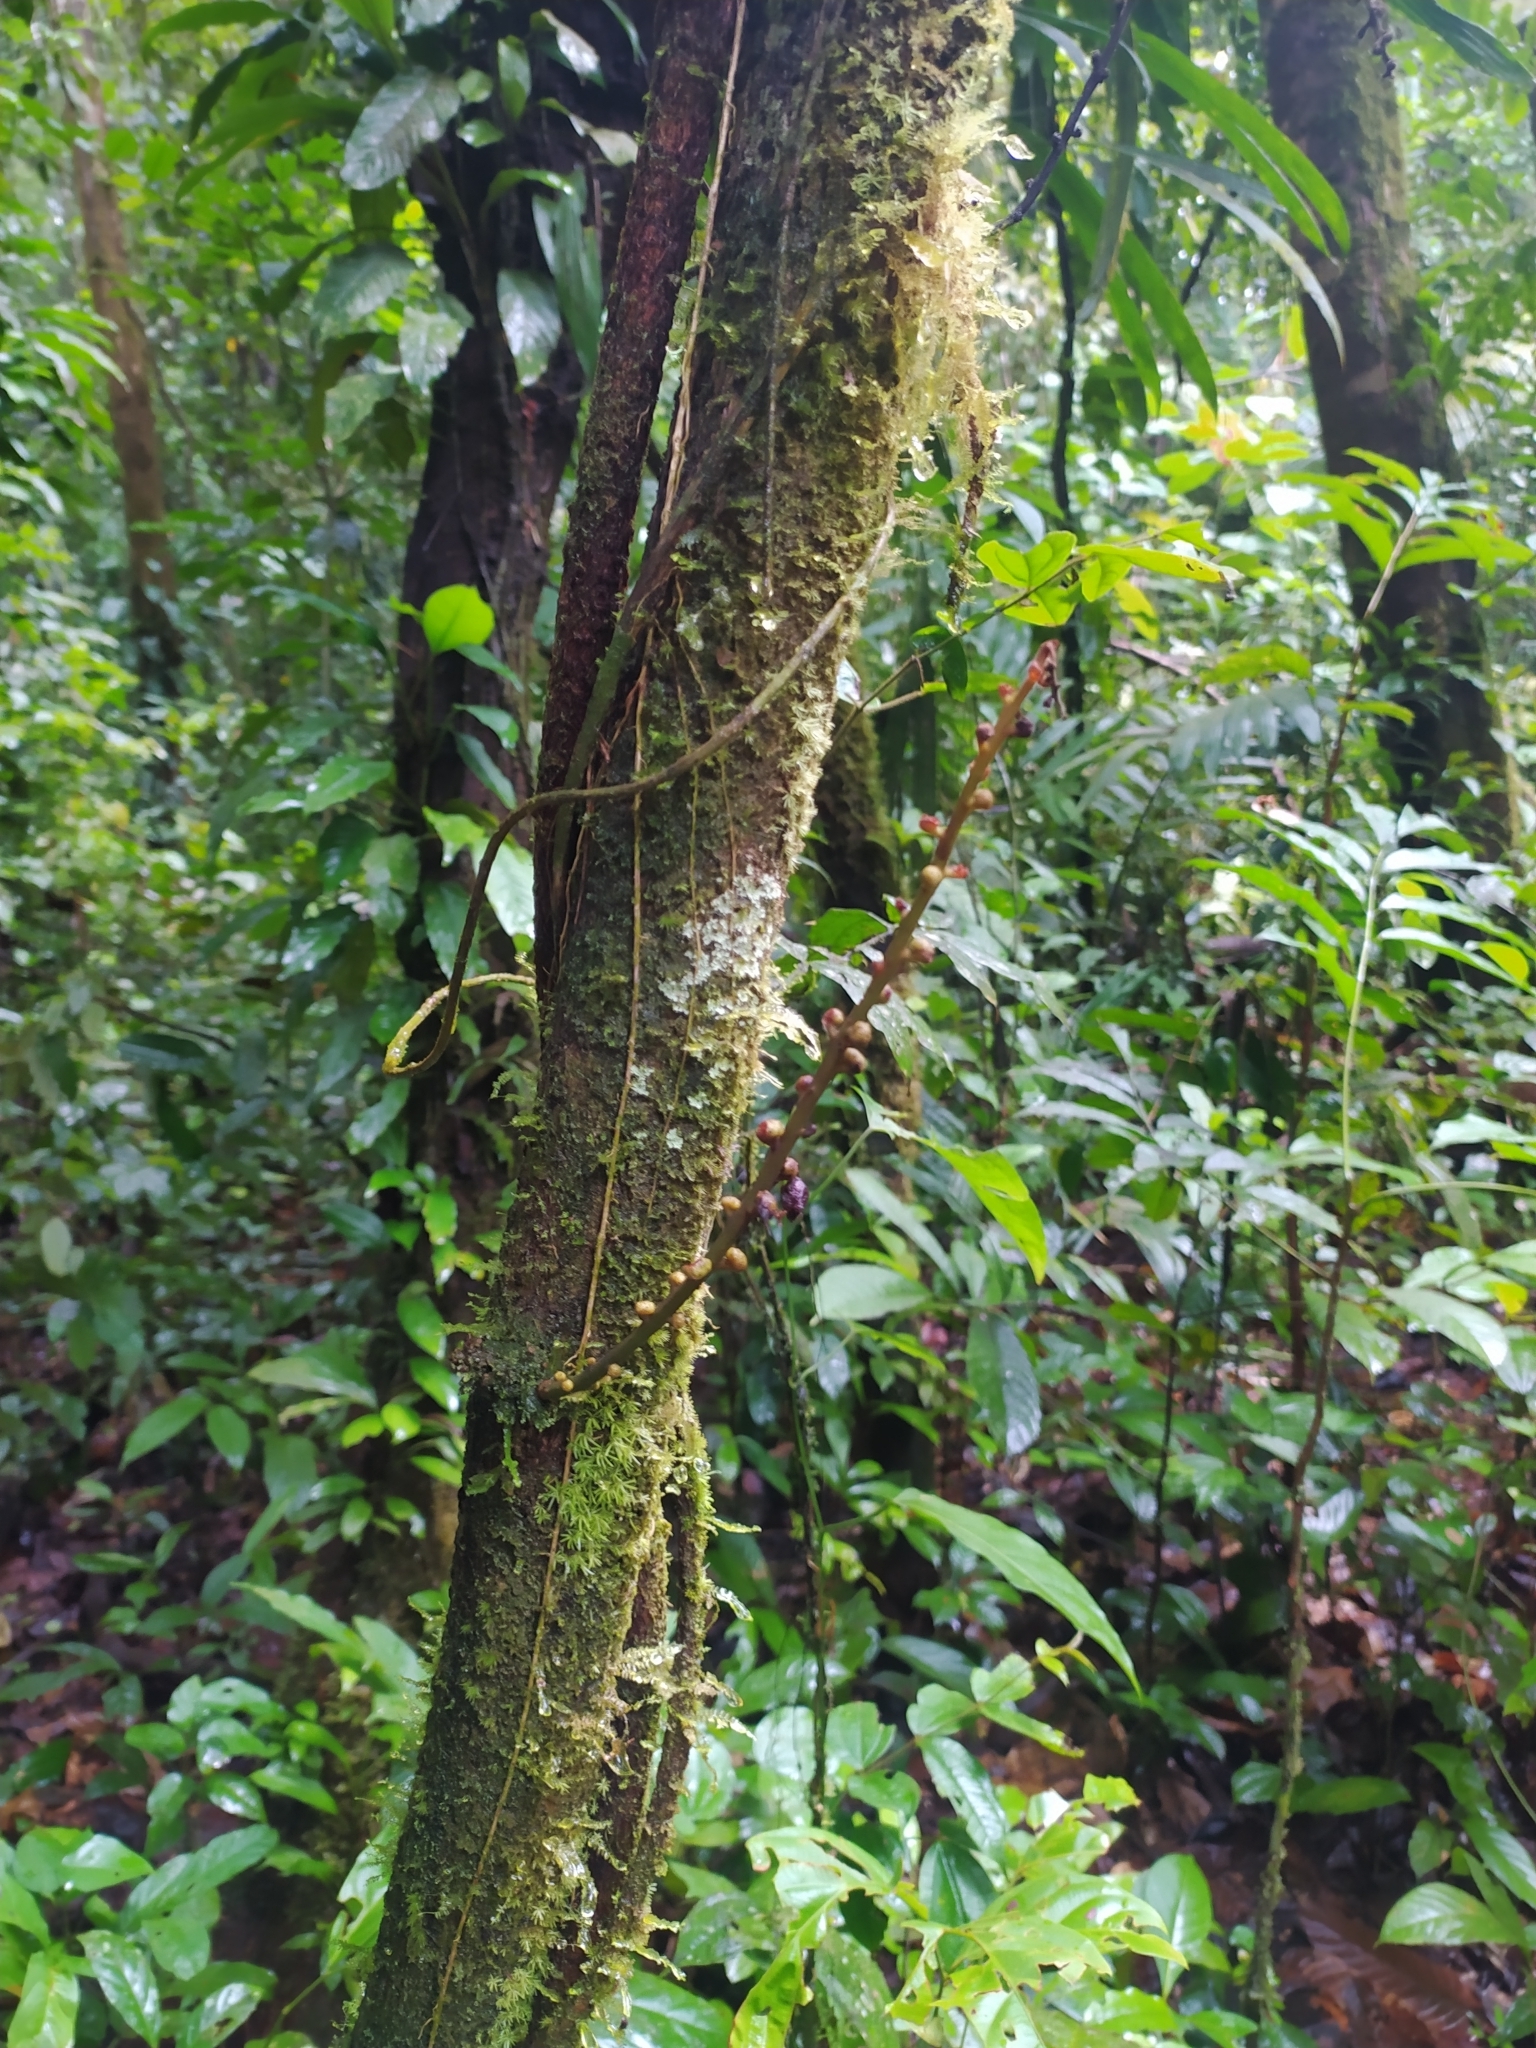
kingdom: Plantae
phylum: Tracheophyta
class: Magnoliopsida
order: Fabales
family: Fabaceae
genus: Macropsychanthus
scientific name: Macropsychanthus macrocarpus
